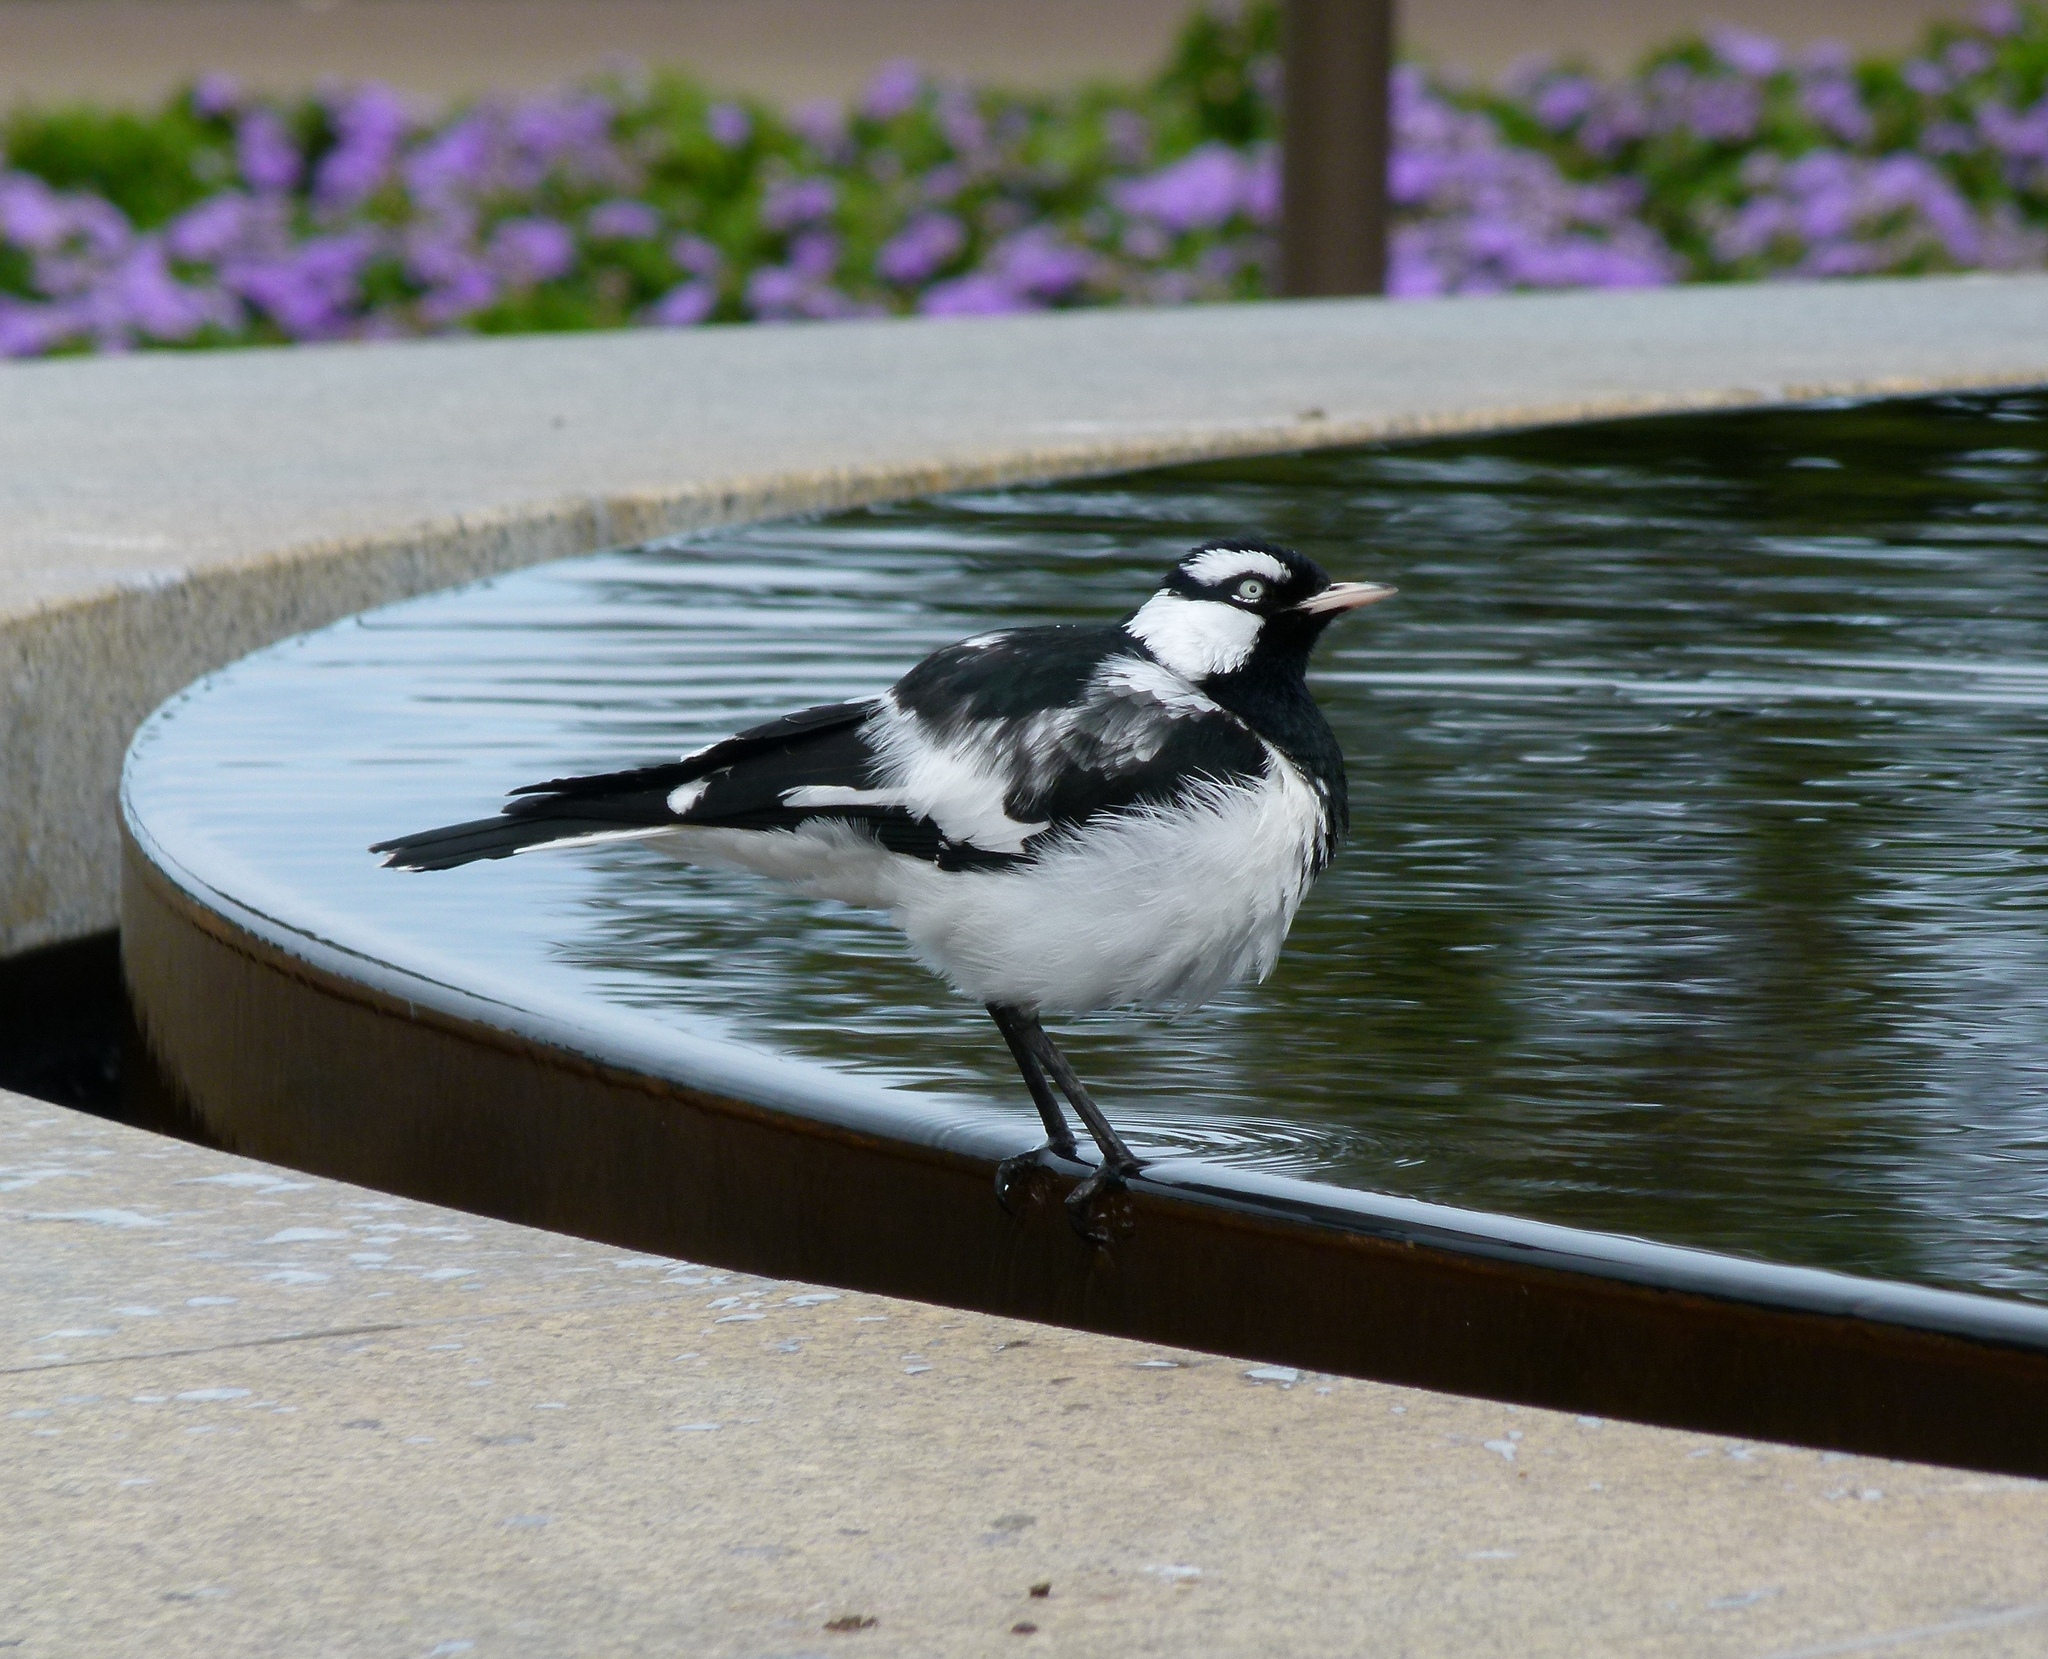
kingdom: Animalia
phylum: Chordata
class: Aves
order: Passeriformes
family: Monarchidae
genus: Grallina
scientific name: Grallina cyanoleuca
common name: Magpie-lark
